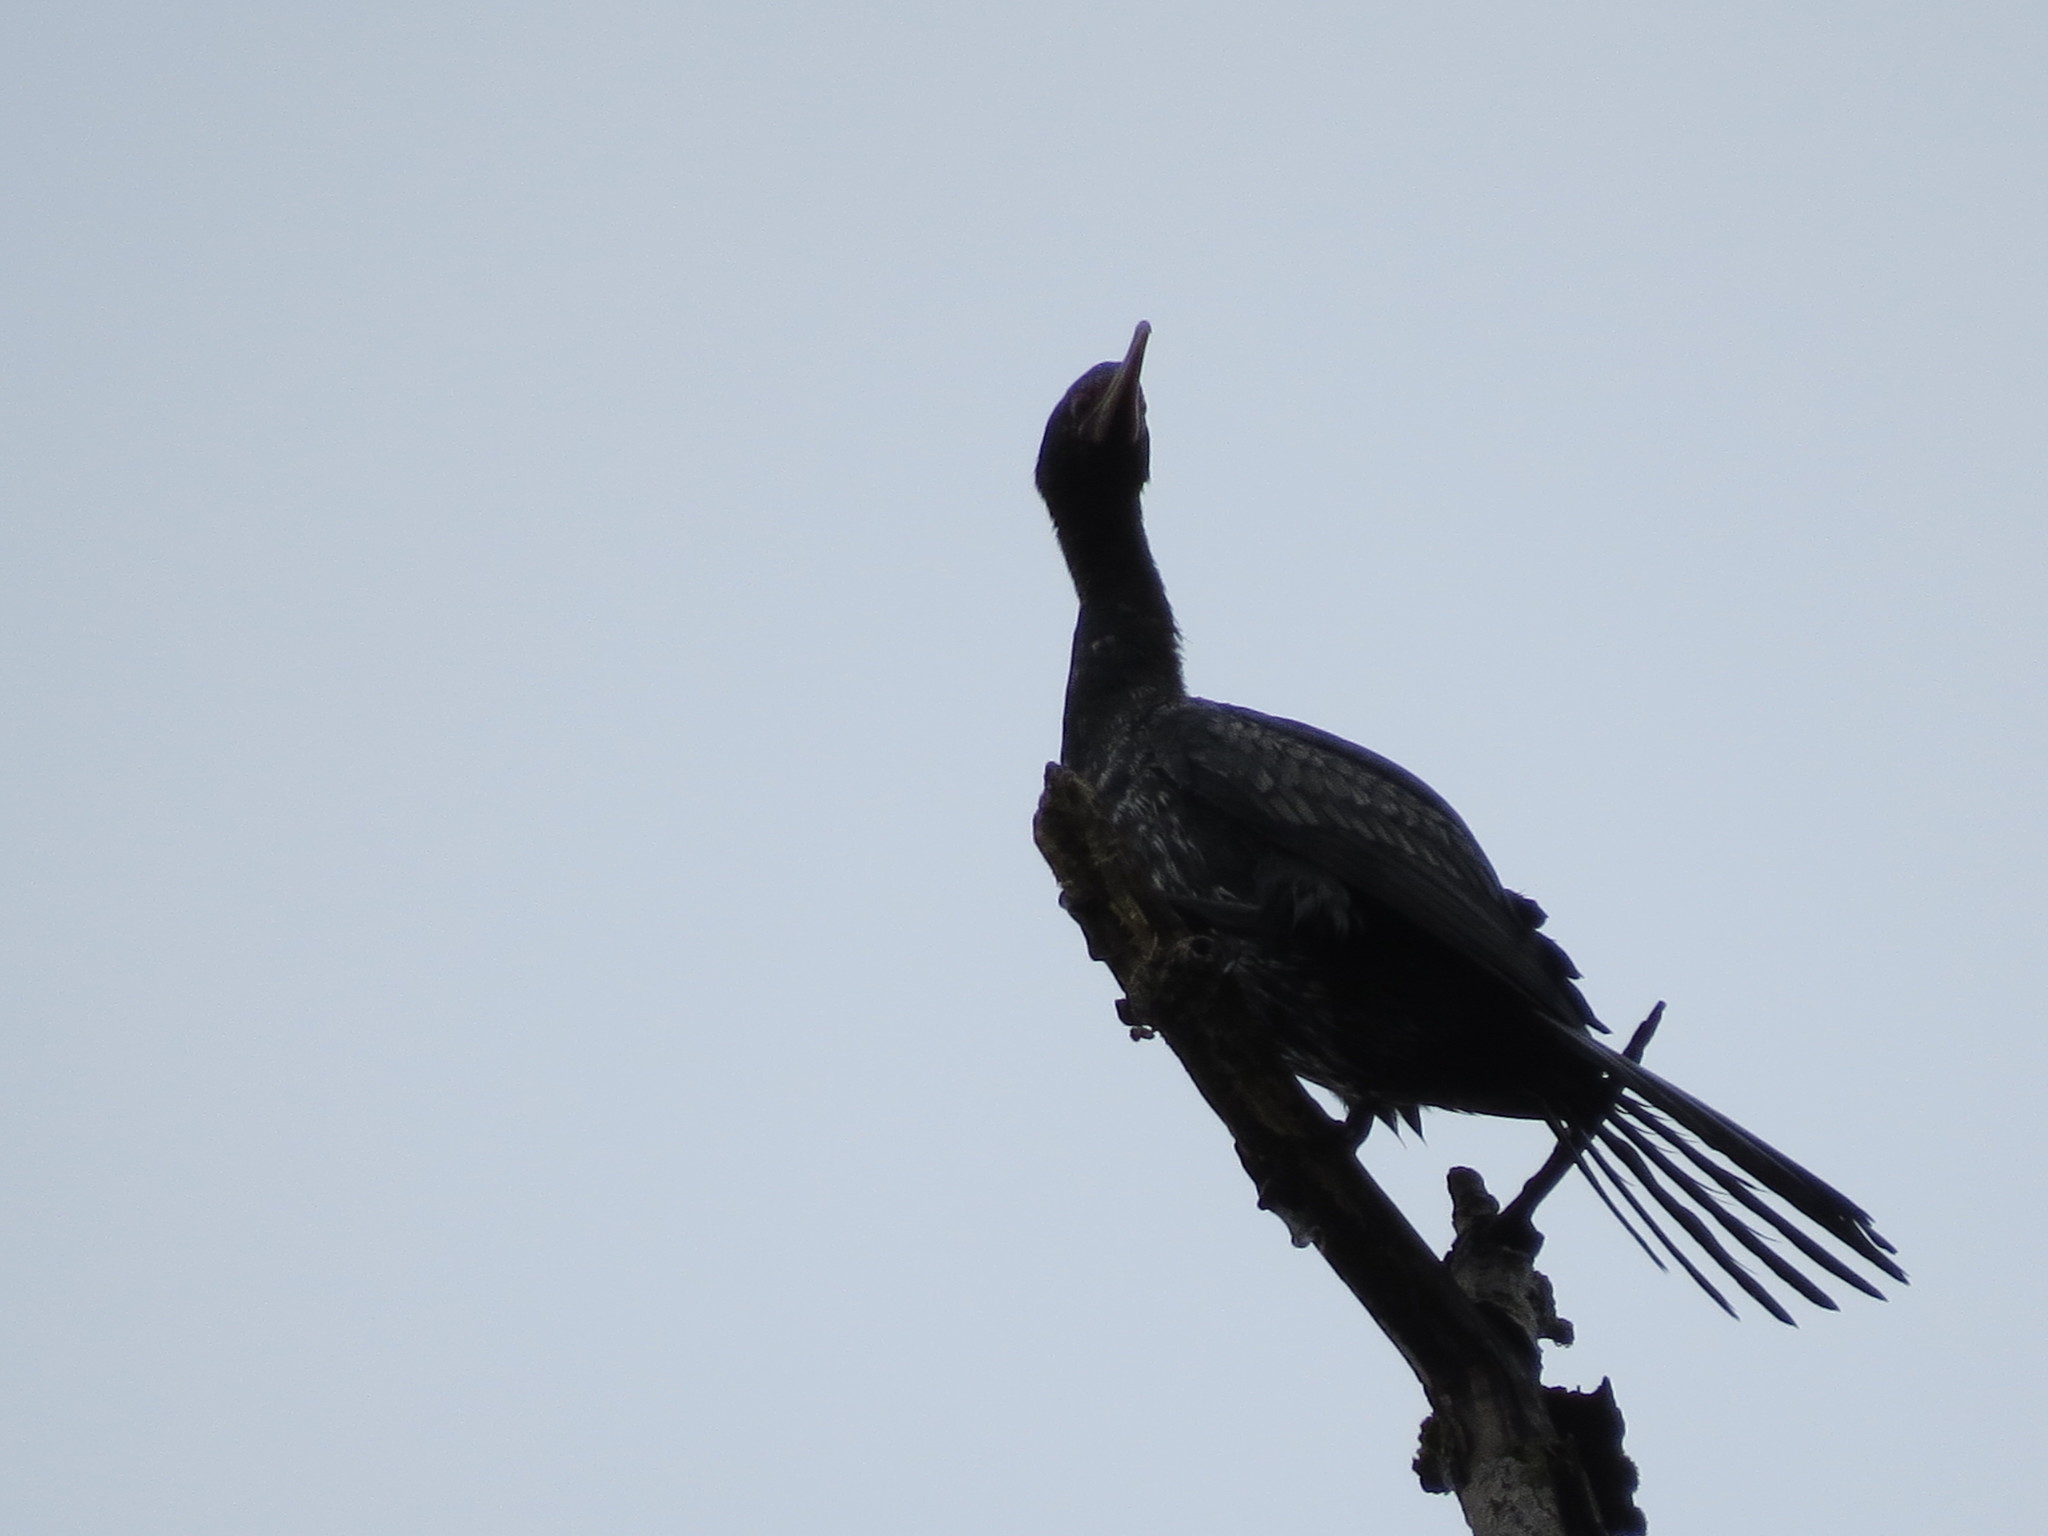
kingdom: Animalia
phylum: Chordata
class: Aves
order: Suliformes
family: Phalacrocoracidae
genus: Microcarbo
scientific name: Microcarbo africanus
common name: Long-tailed cormorant
